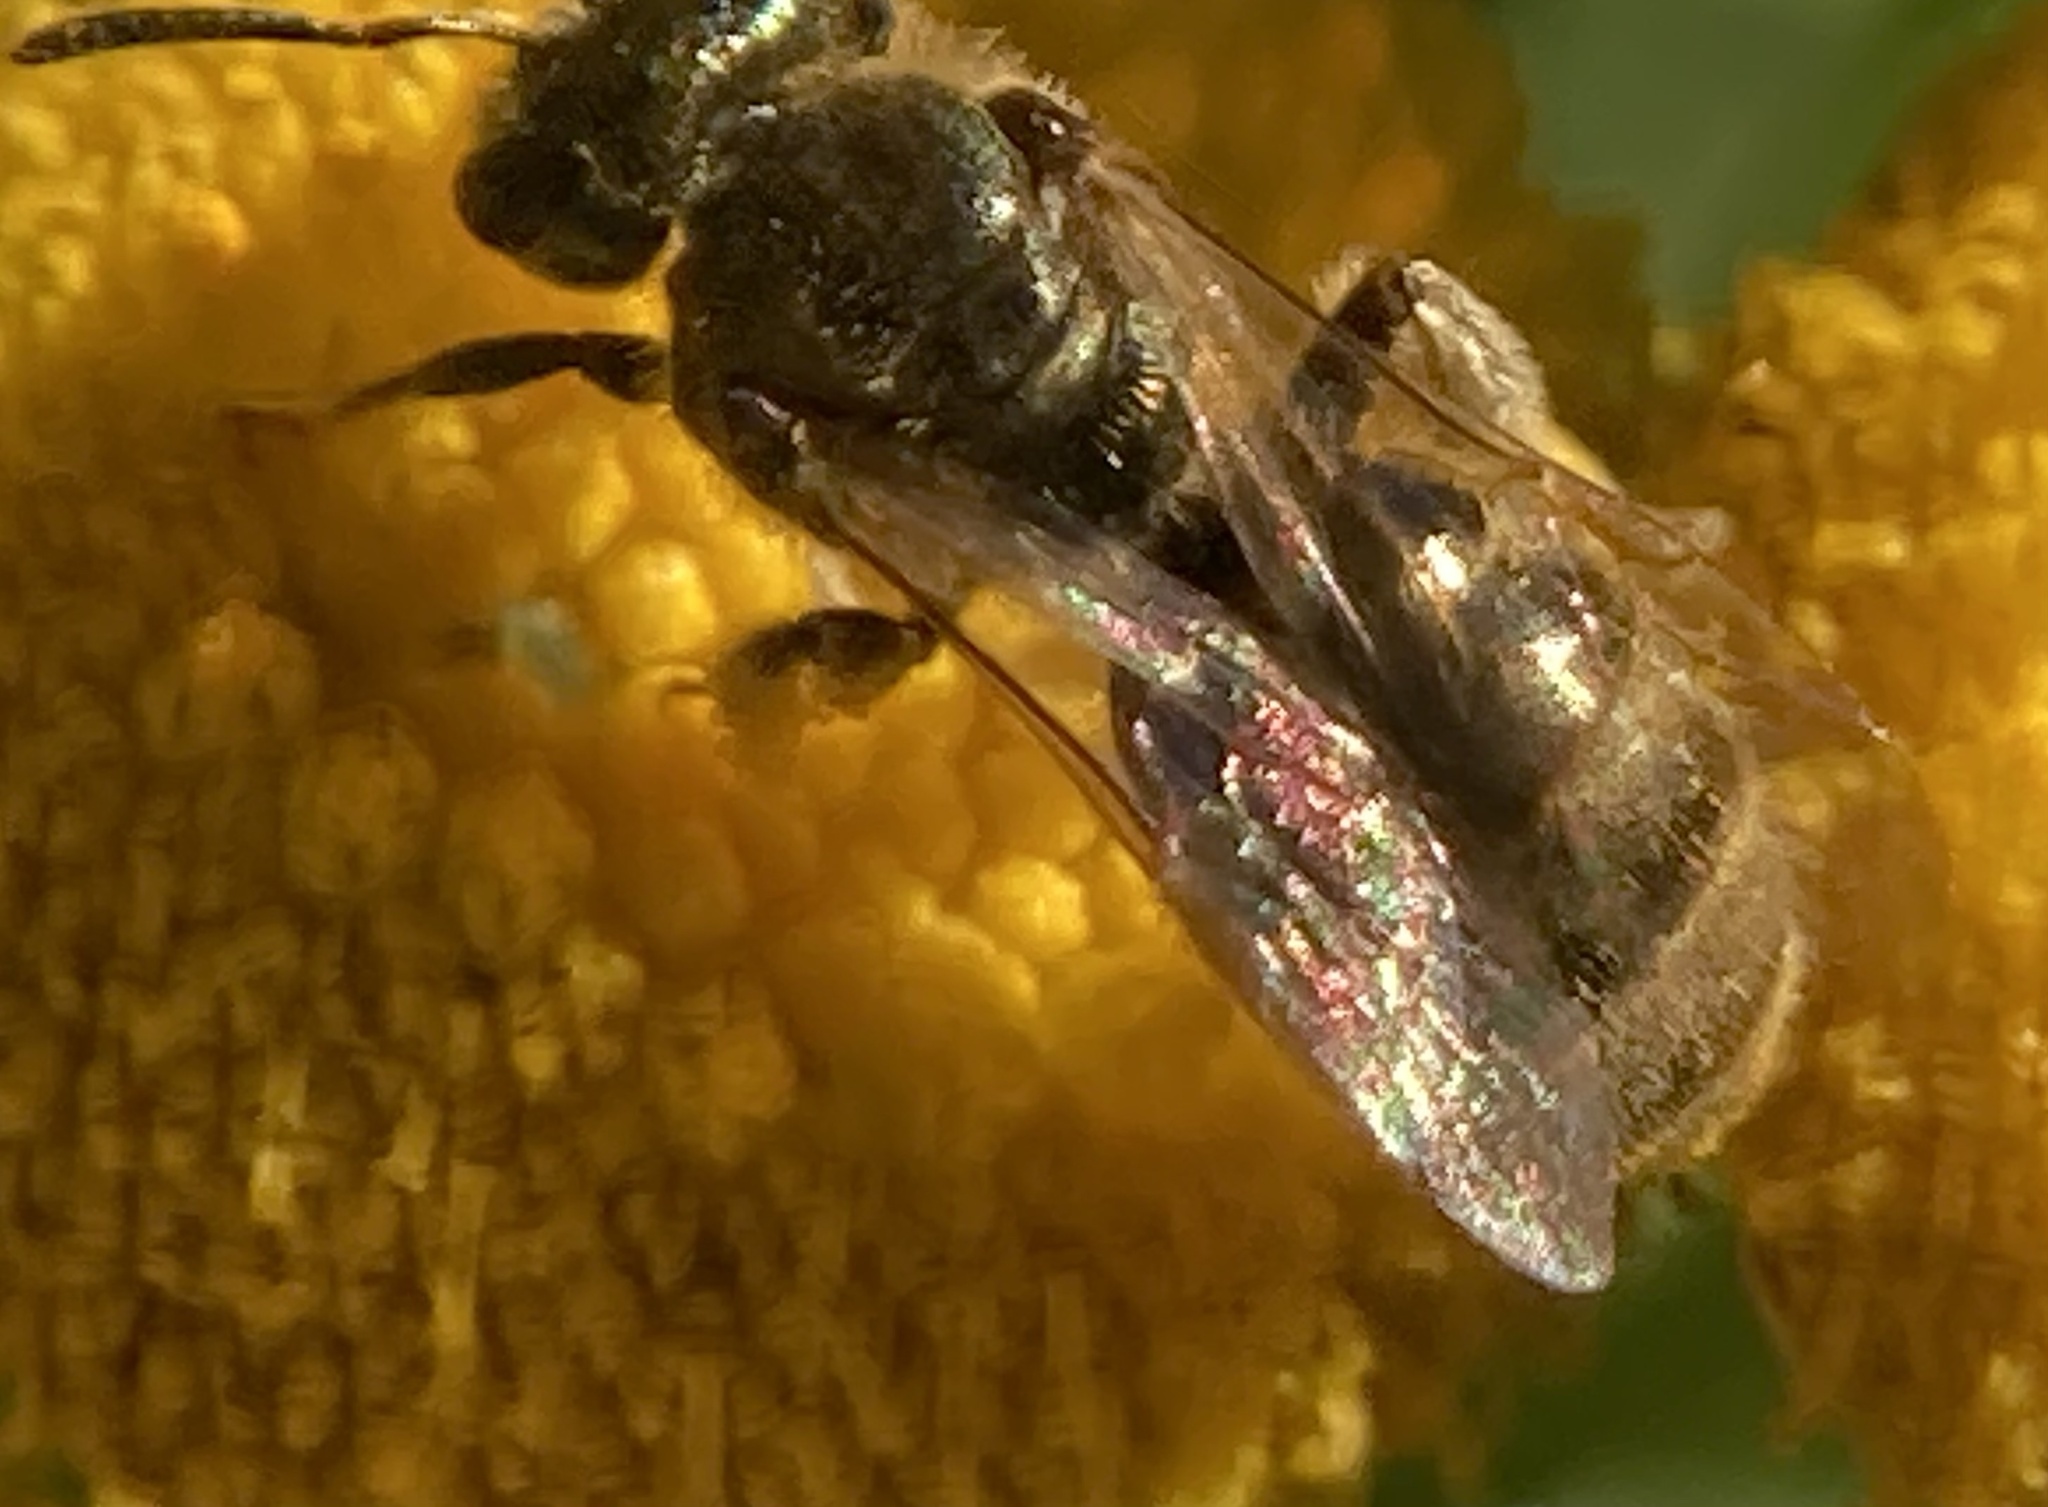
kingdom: Animalia
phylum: Arthropoda
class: Insecta
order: Hymenoptera
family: Halictidae
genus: Dialictus
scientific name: Dialictus
